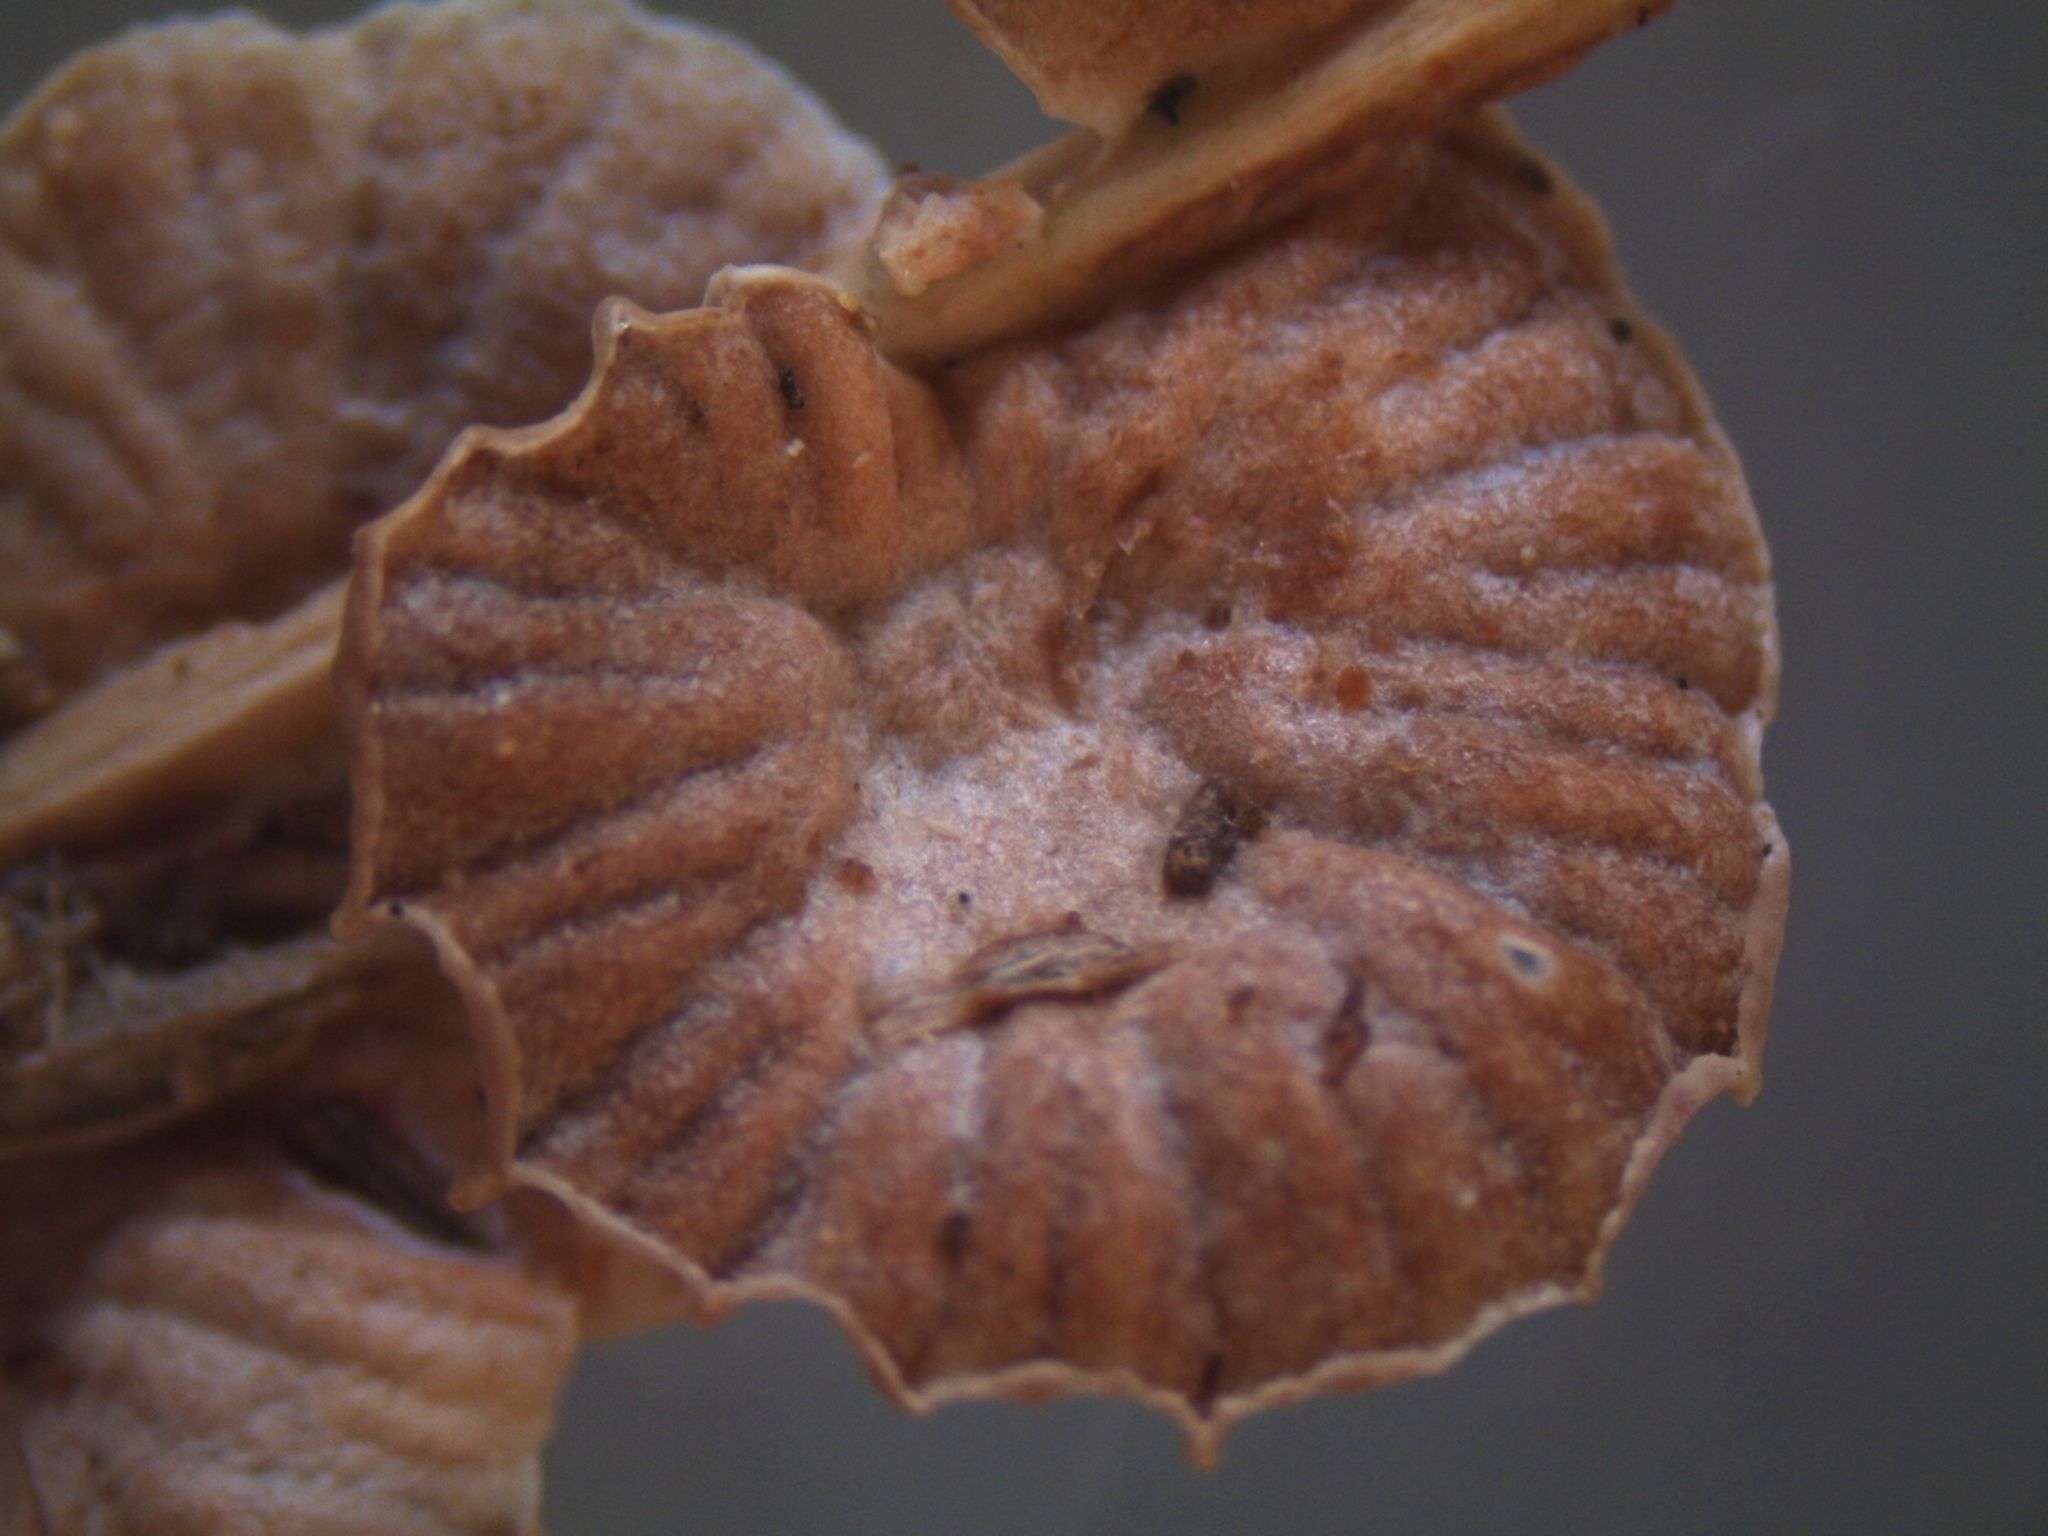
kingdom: Fungi
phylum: Basidiomycota
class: Agaricomycetes
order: Agaricales
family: Omphalotaceae
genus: Gymnopus
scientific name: Gymnopus imbricatus
